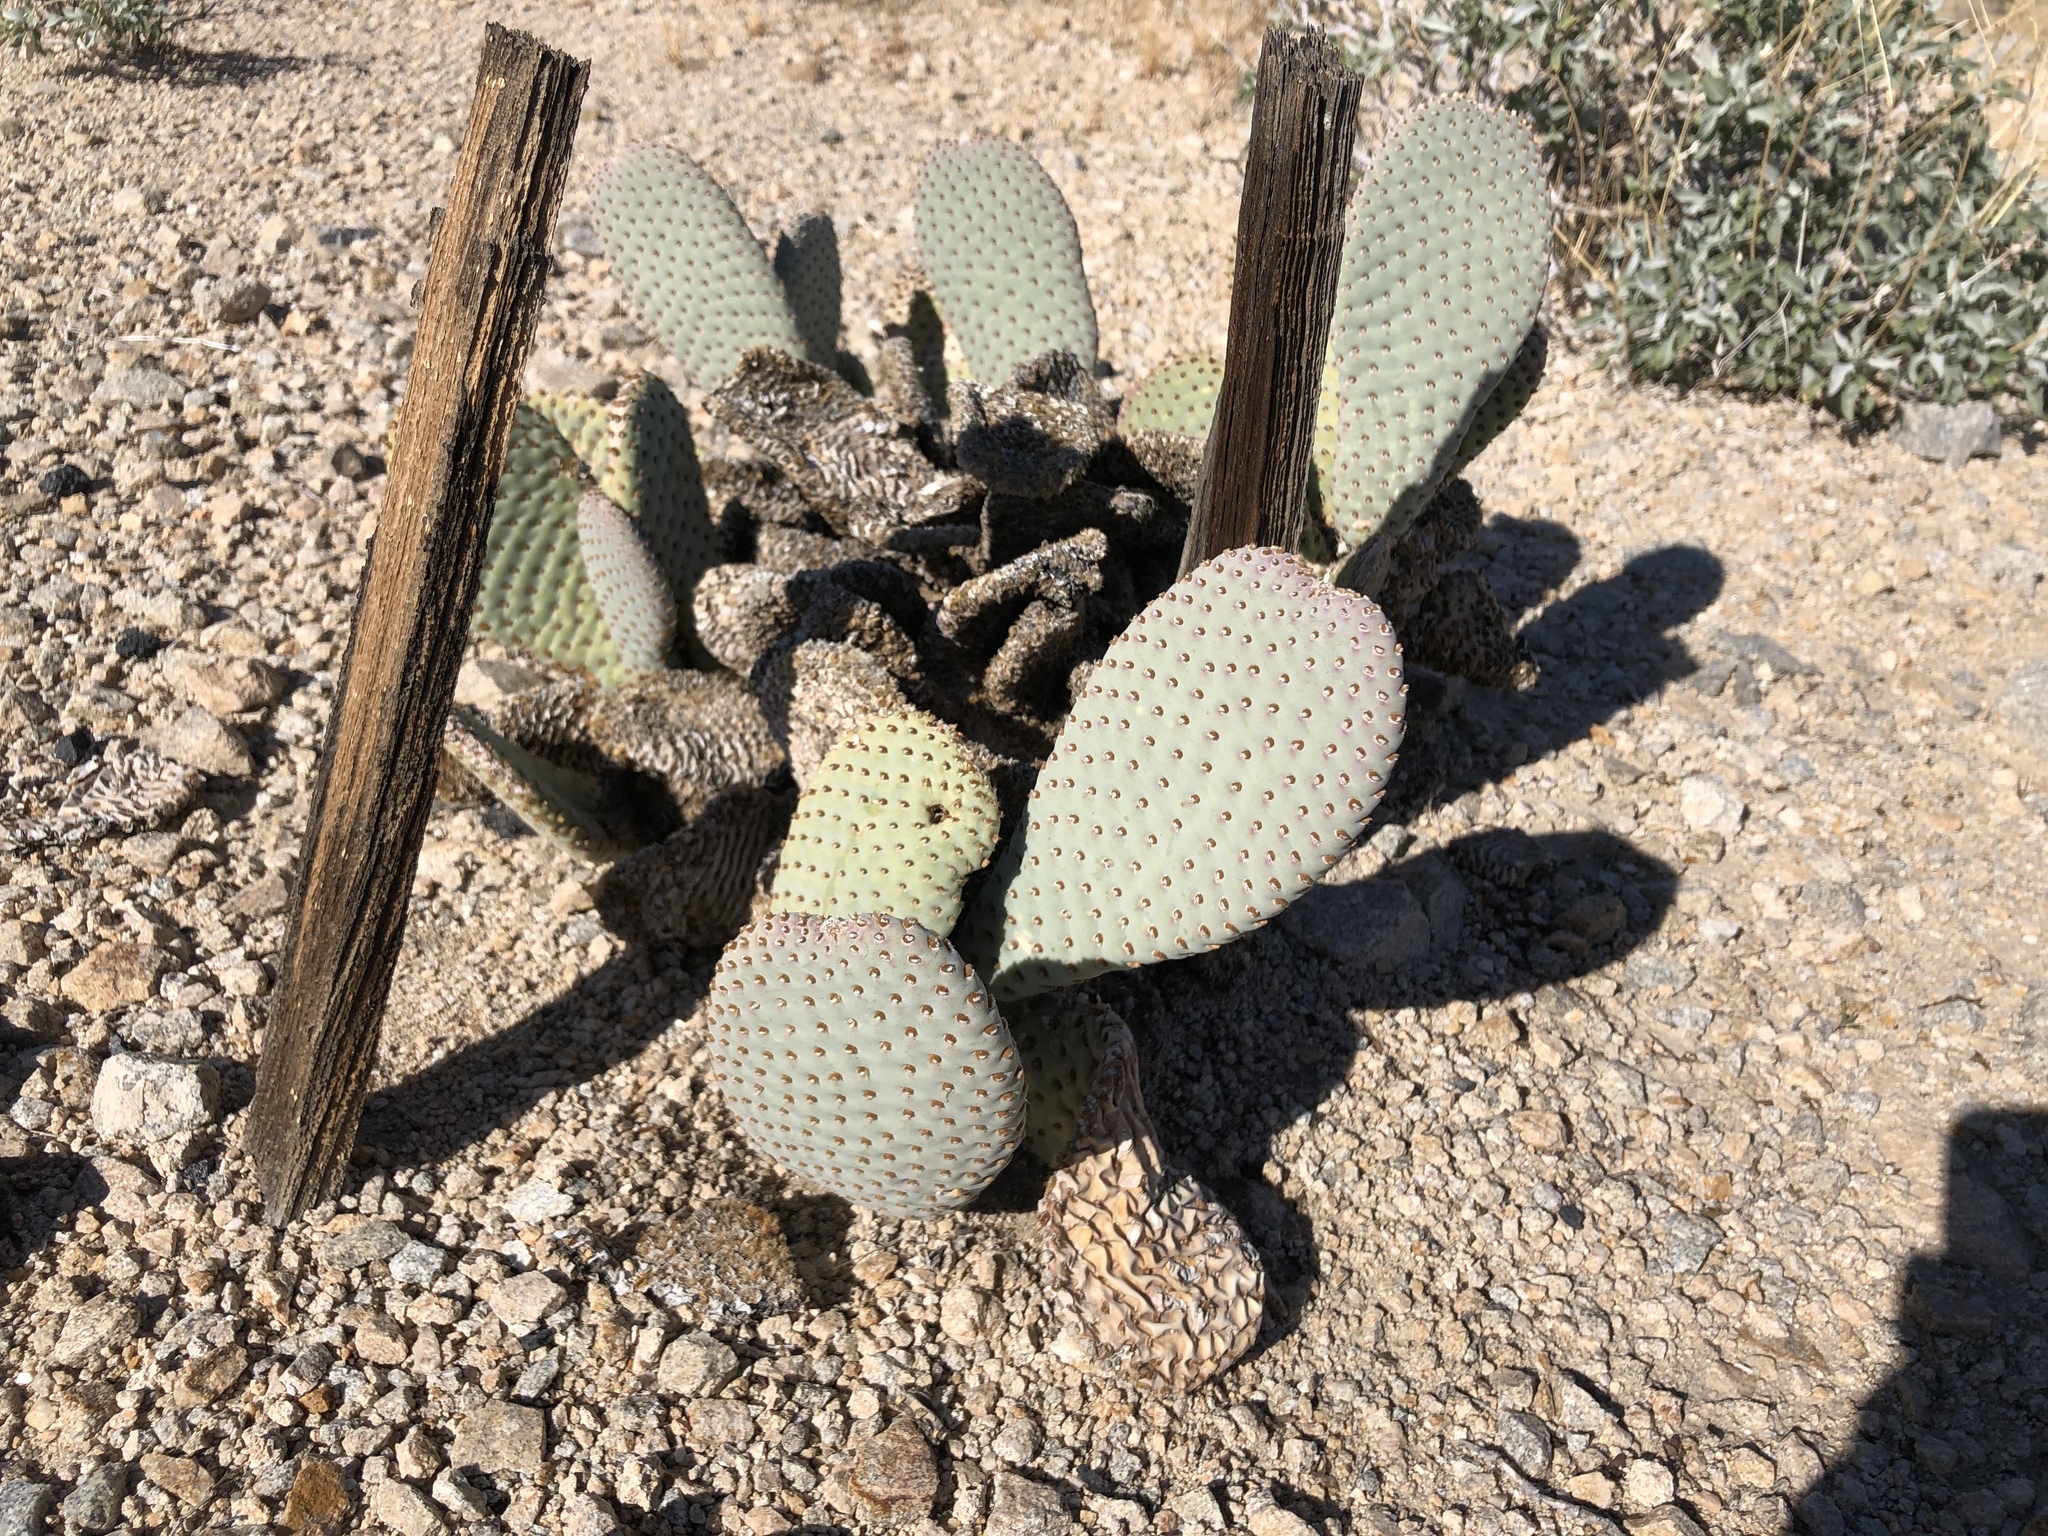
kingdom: Plantae
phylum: Tracheophyta
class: Magnoliopsida
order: Caryophyllales
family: Cactaceae
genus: Opuntia
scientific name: Opuntia basilaris
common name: Beavertail prickly-pear
